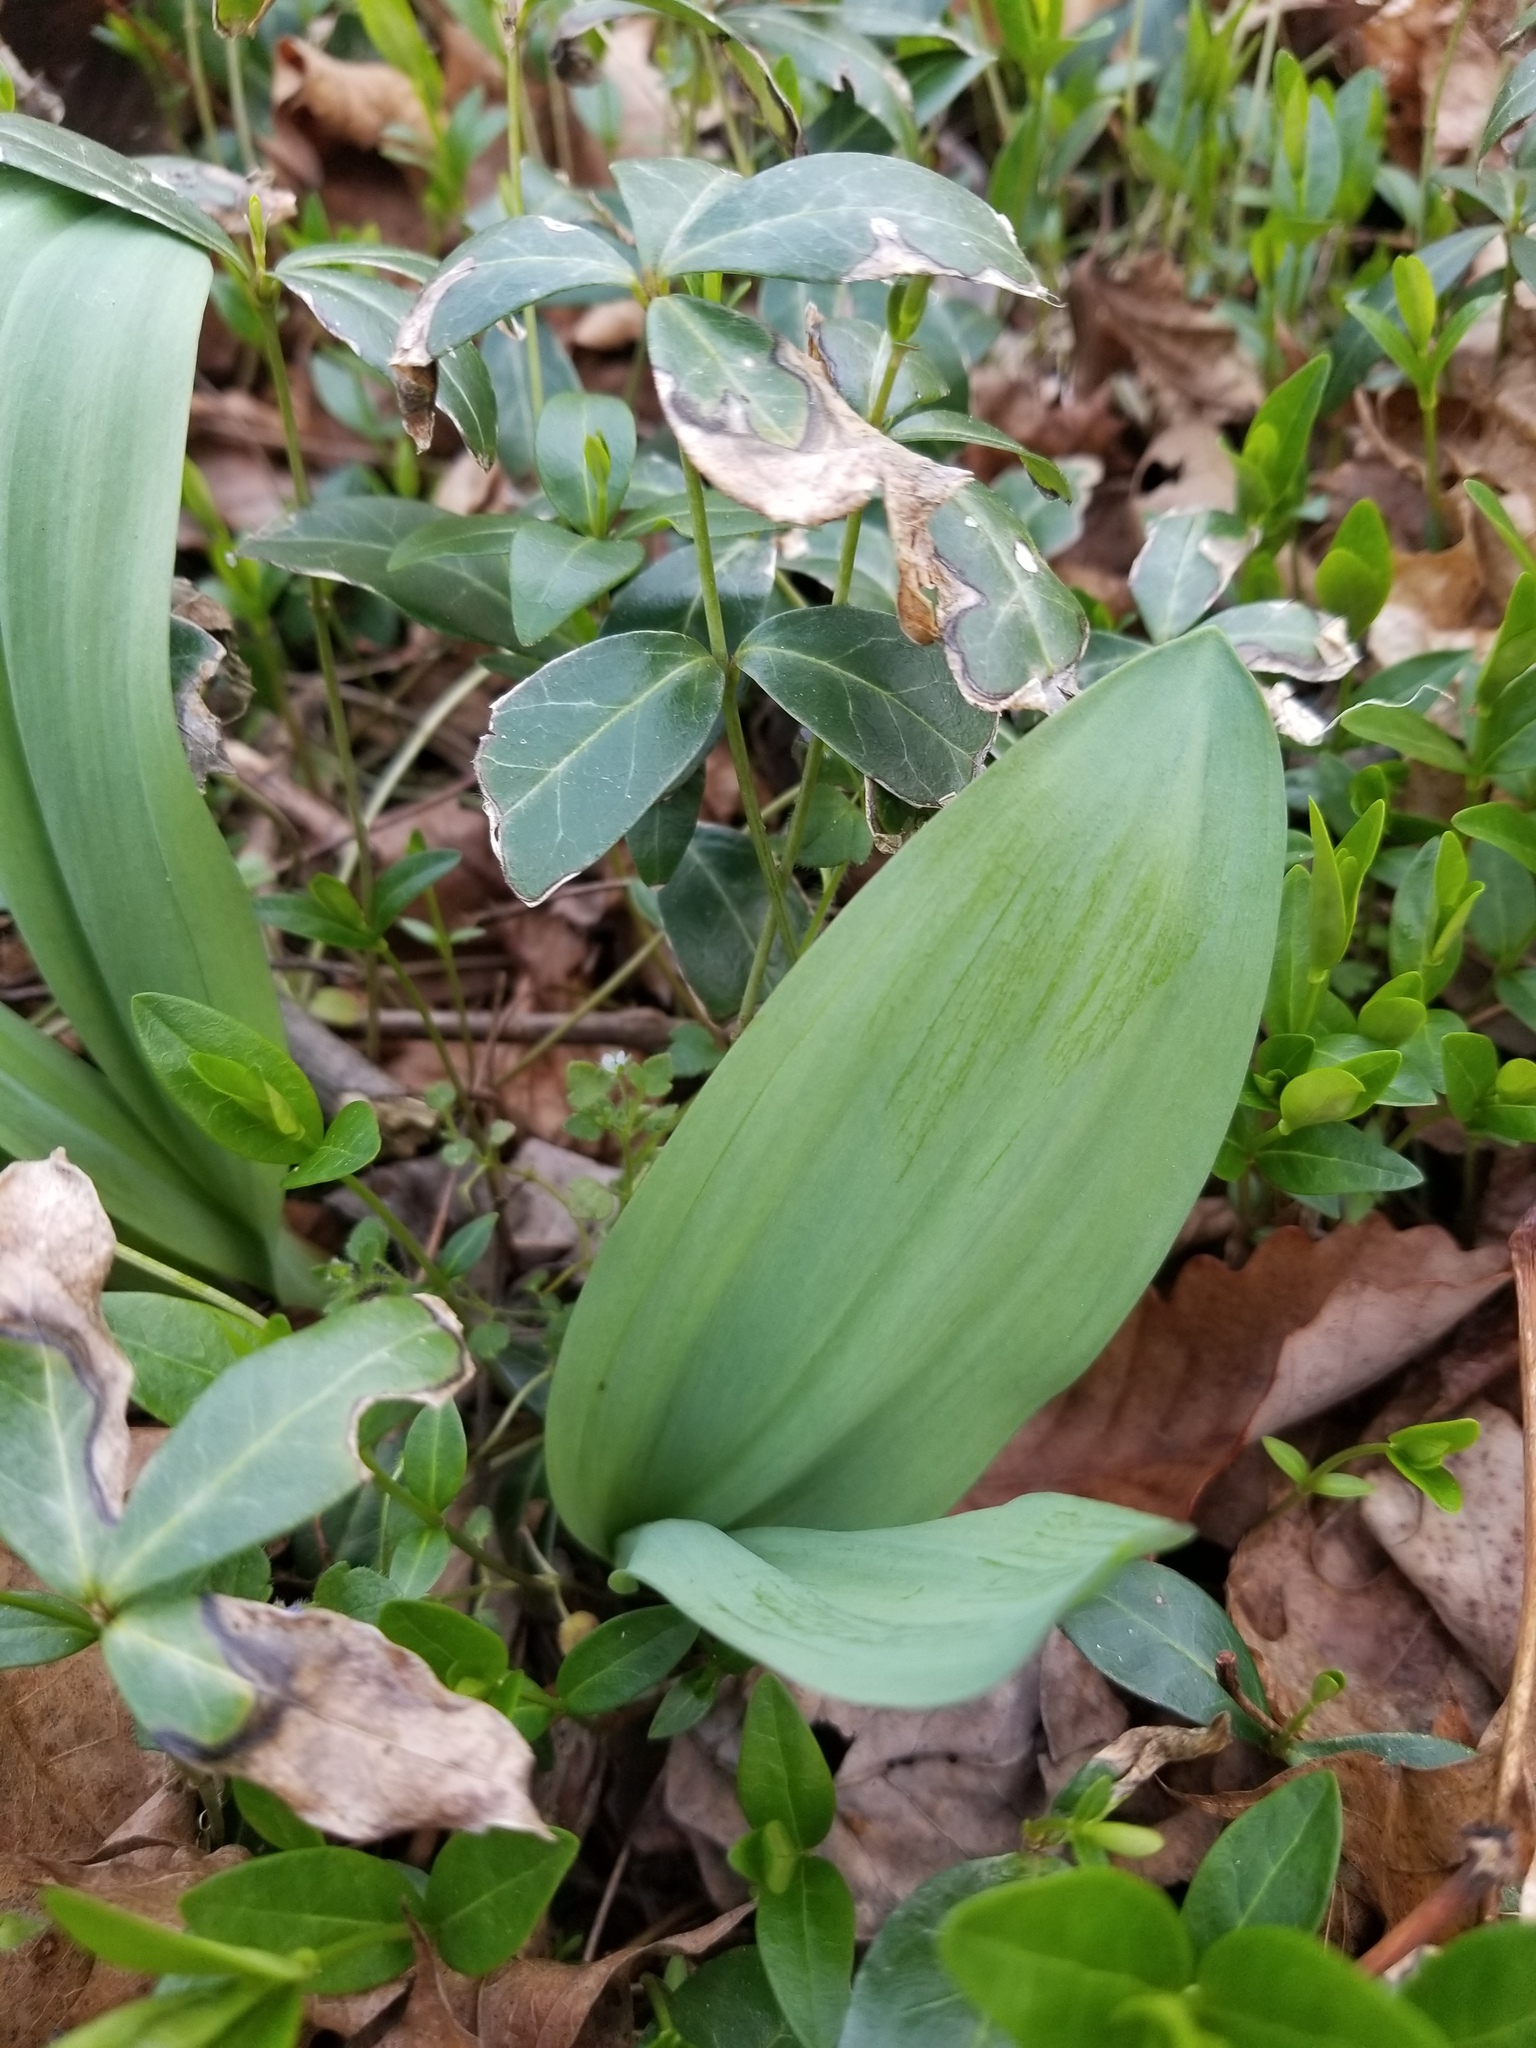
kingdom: Plantae
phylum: Tracheophyta
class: Liliopsida
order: Asparagales
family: Amaryllidaceae
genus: Allium
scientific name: Allium tricoccum
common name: Ramp
